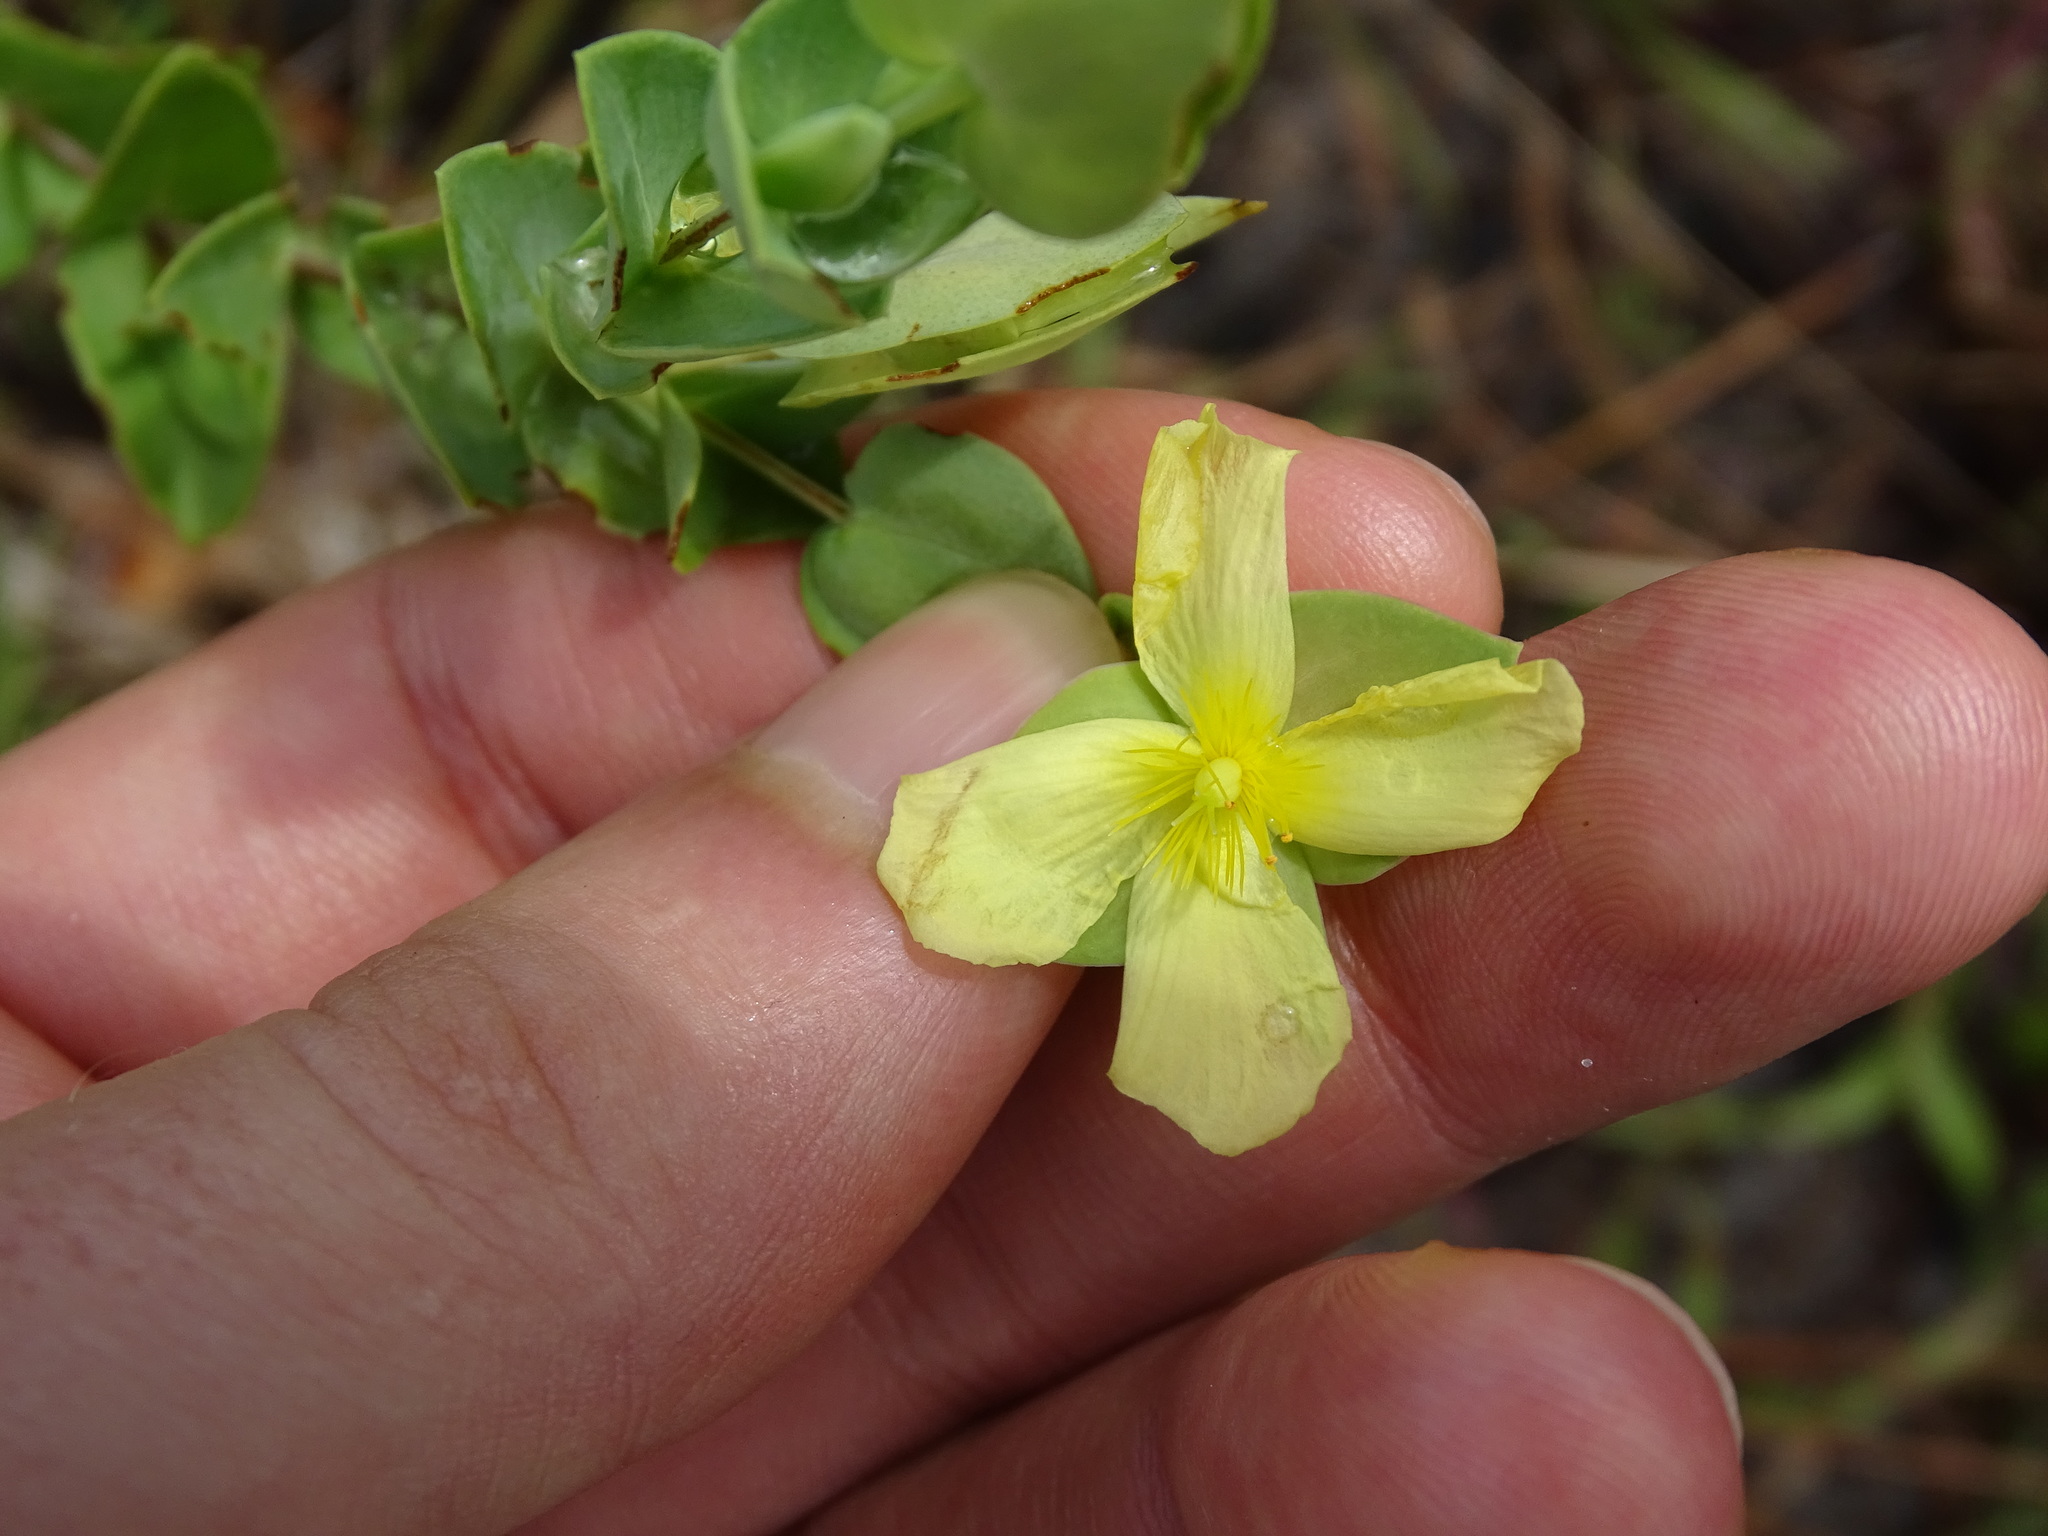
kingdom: Plantae
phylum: Tracheophyta
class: Magnoliopsida
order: Malpighiales
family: Hypericaceae
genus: Hypericum
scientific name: Hypericum tetrapetalum
